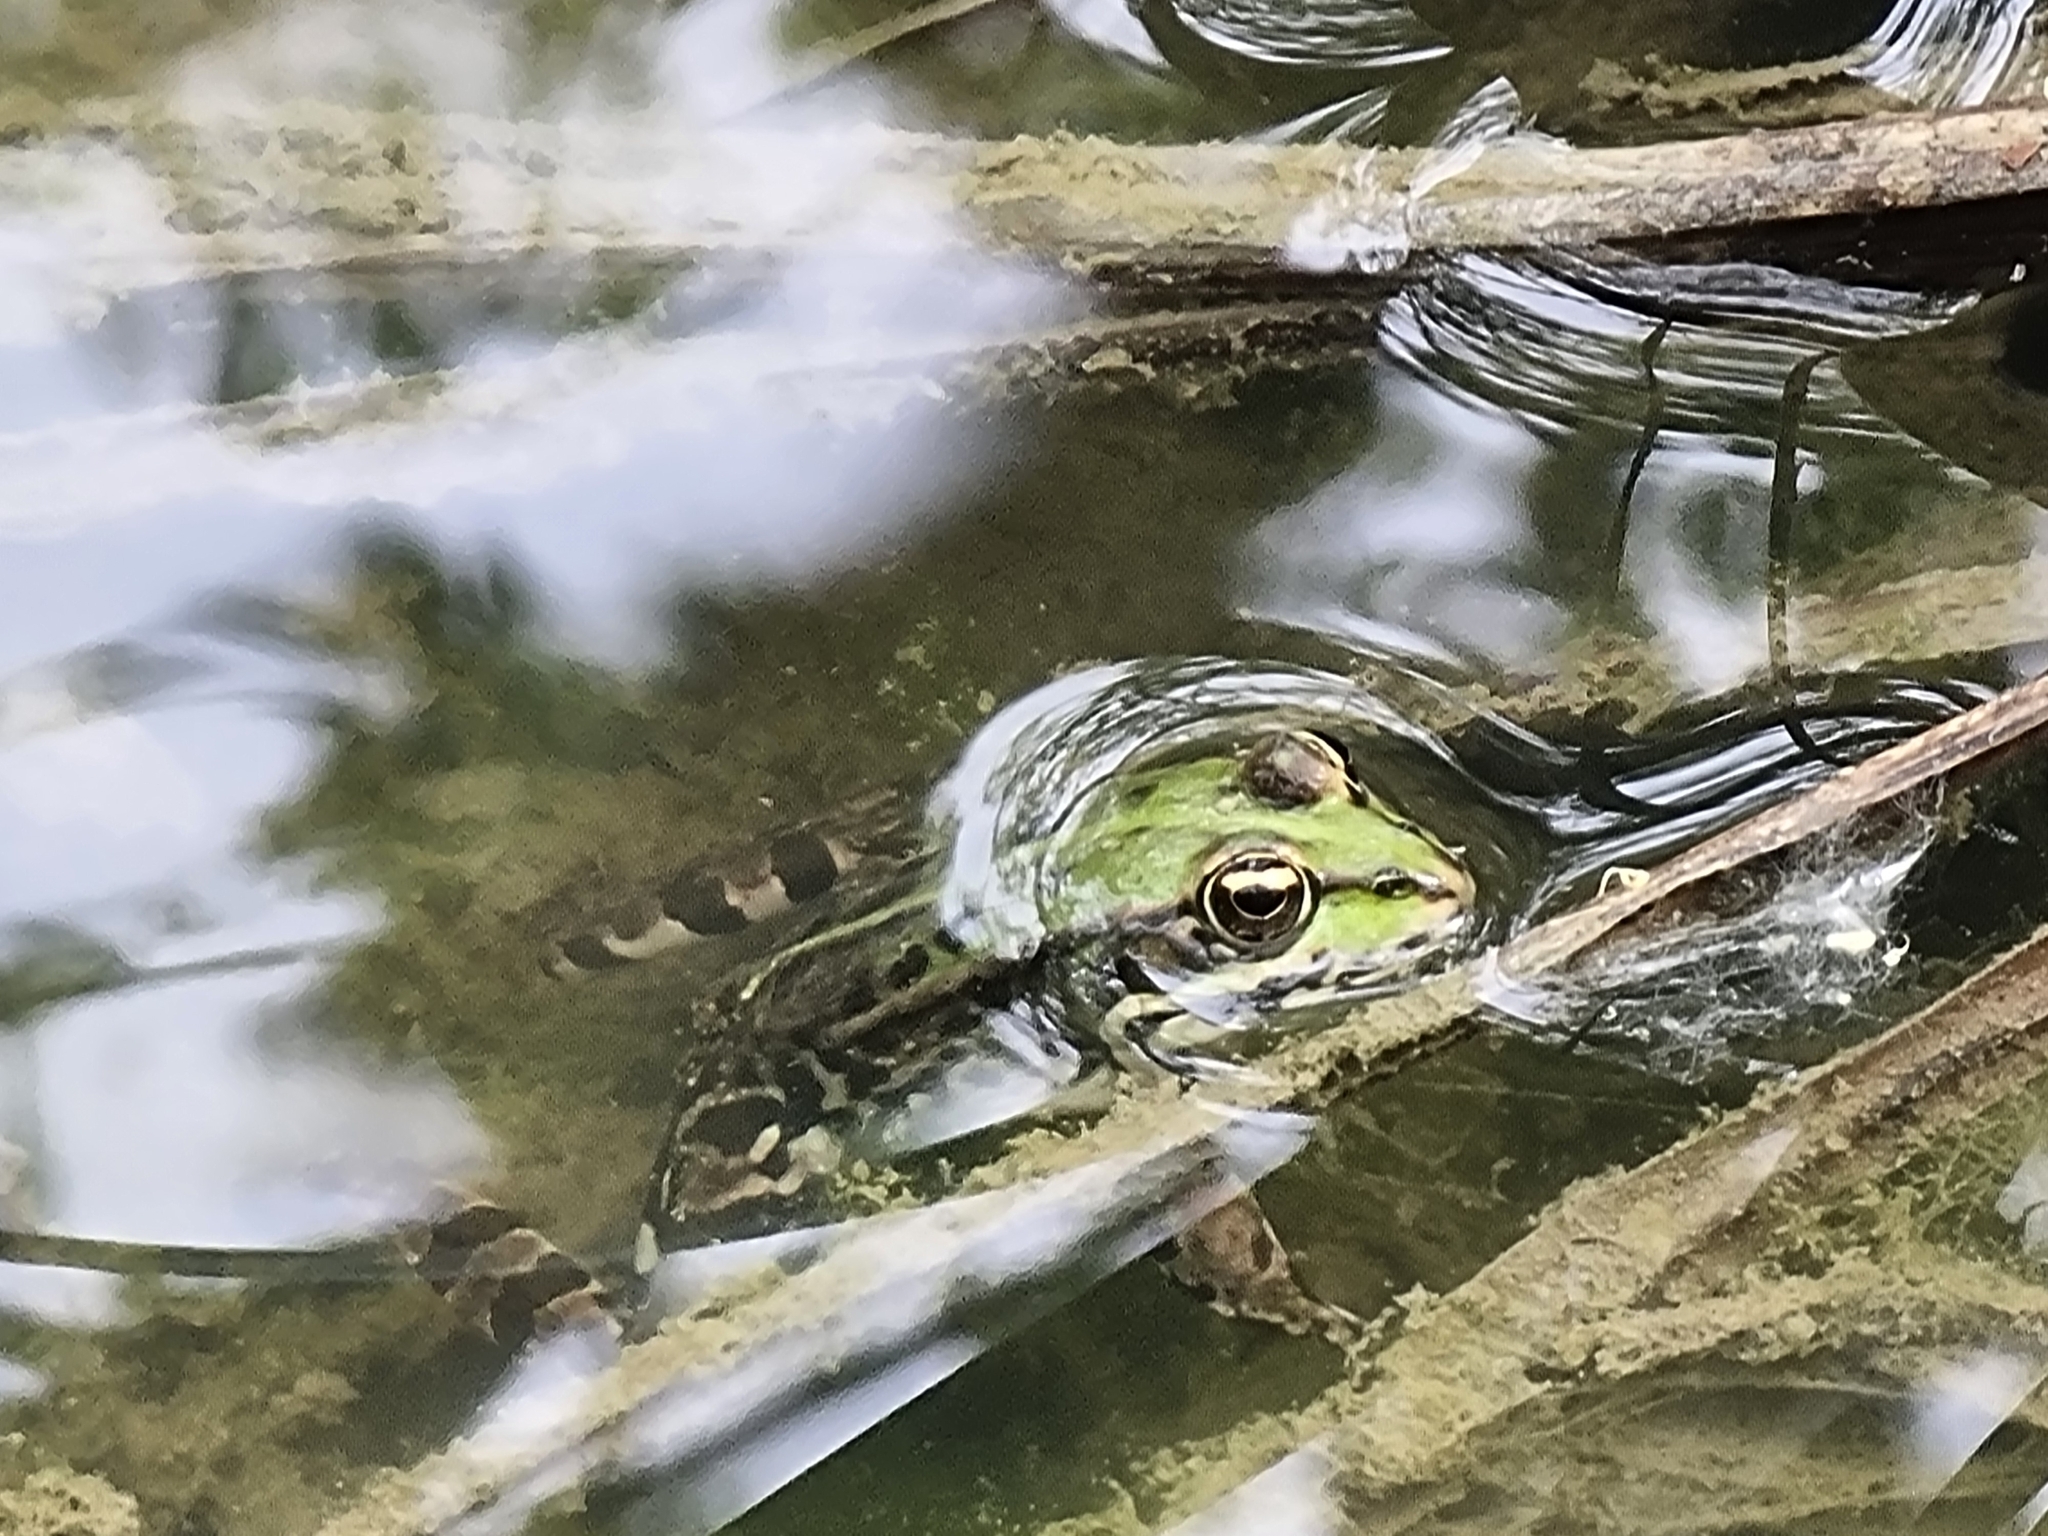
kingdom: Animalia
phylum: Chordata
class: Amphibia
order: Anura
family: Ranidae
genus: Pelophylax
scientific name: Pelophylax
